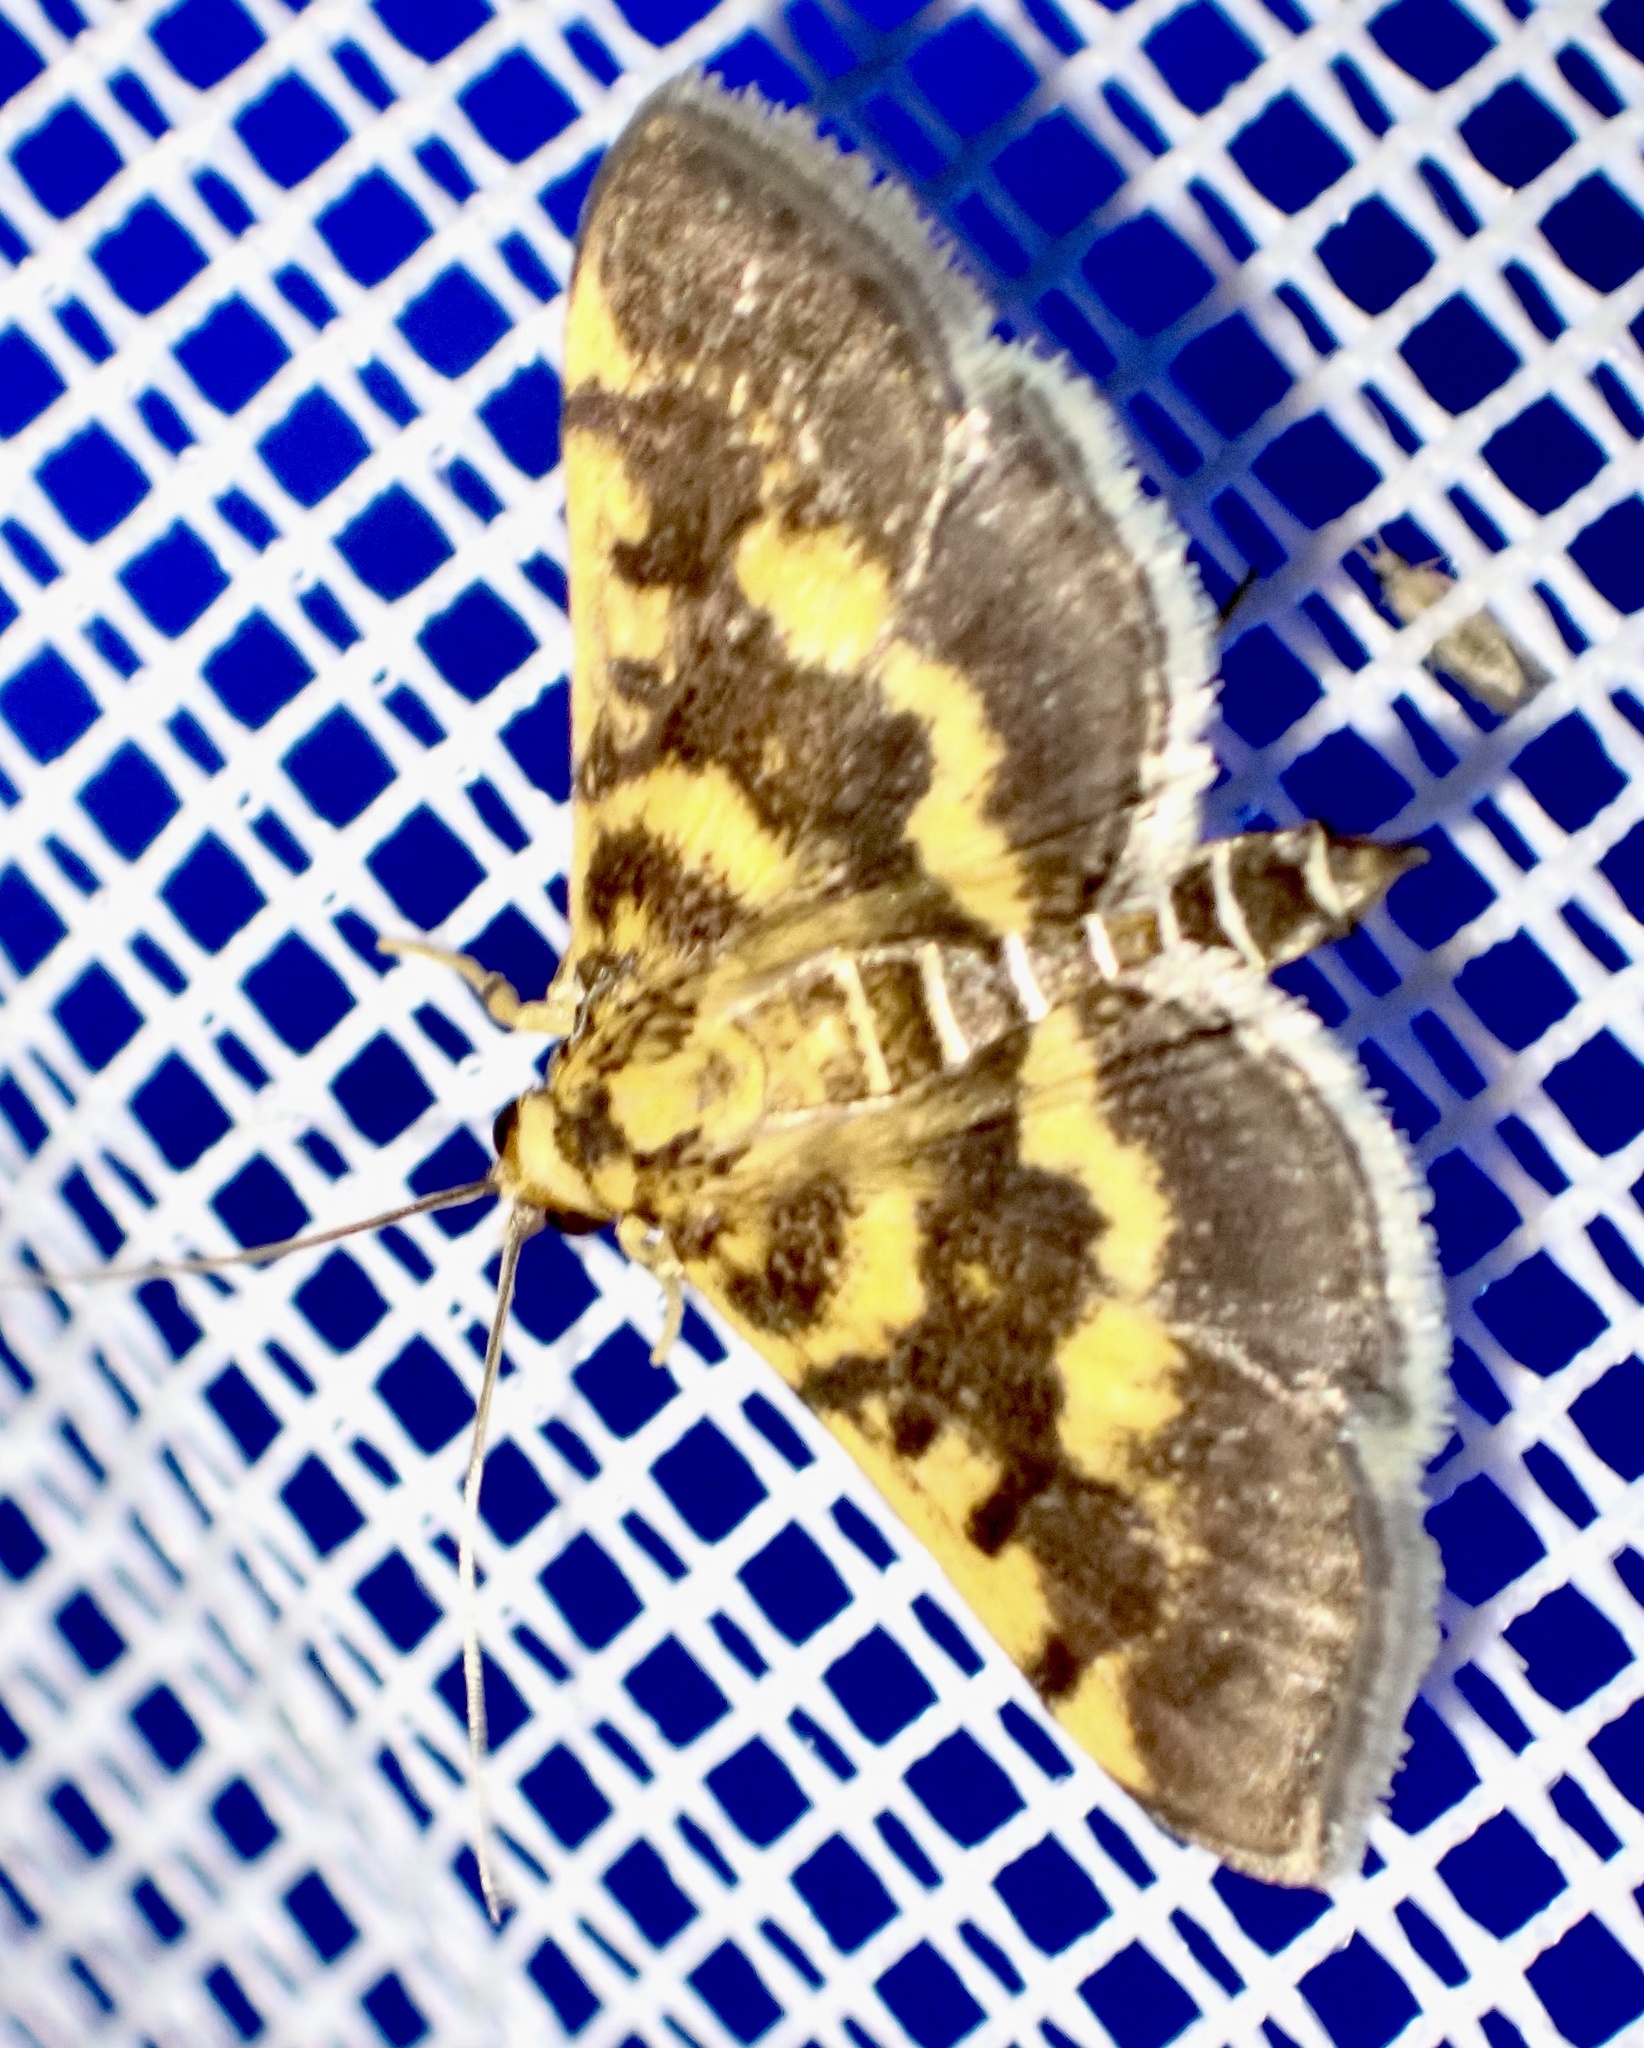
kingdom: Animalia
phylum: Arthropoda
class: Insecta
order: Lepidoptera
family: Crambidae
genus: Omiodes
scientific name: Omiodes diemenalis
